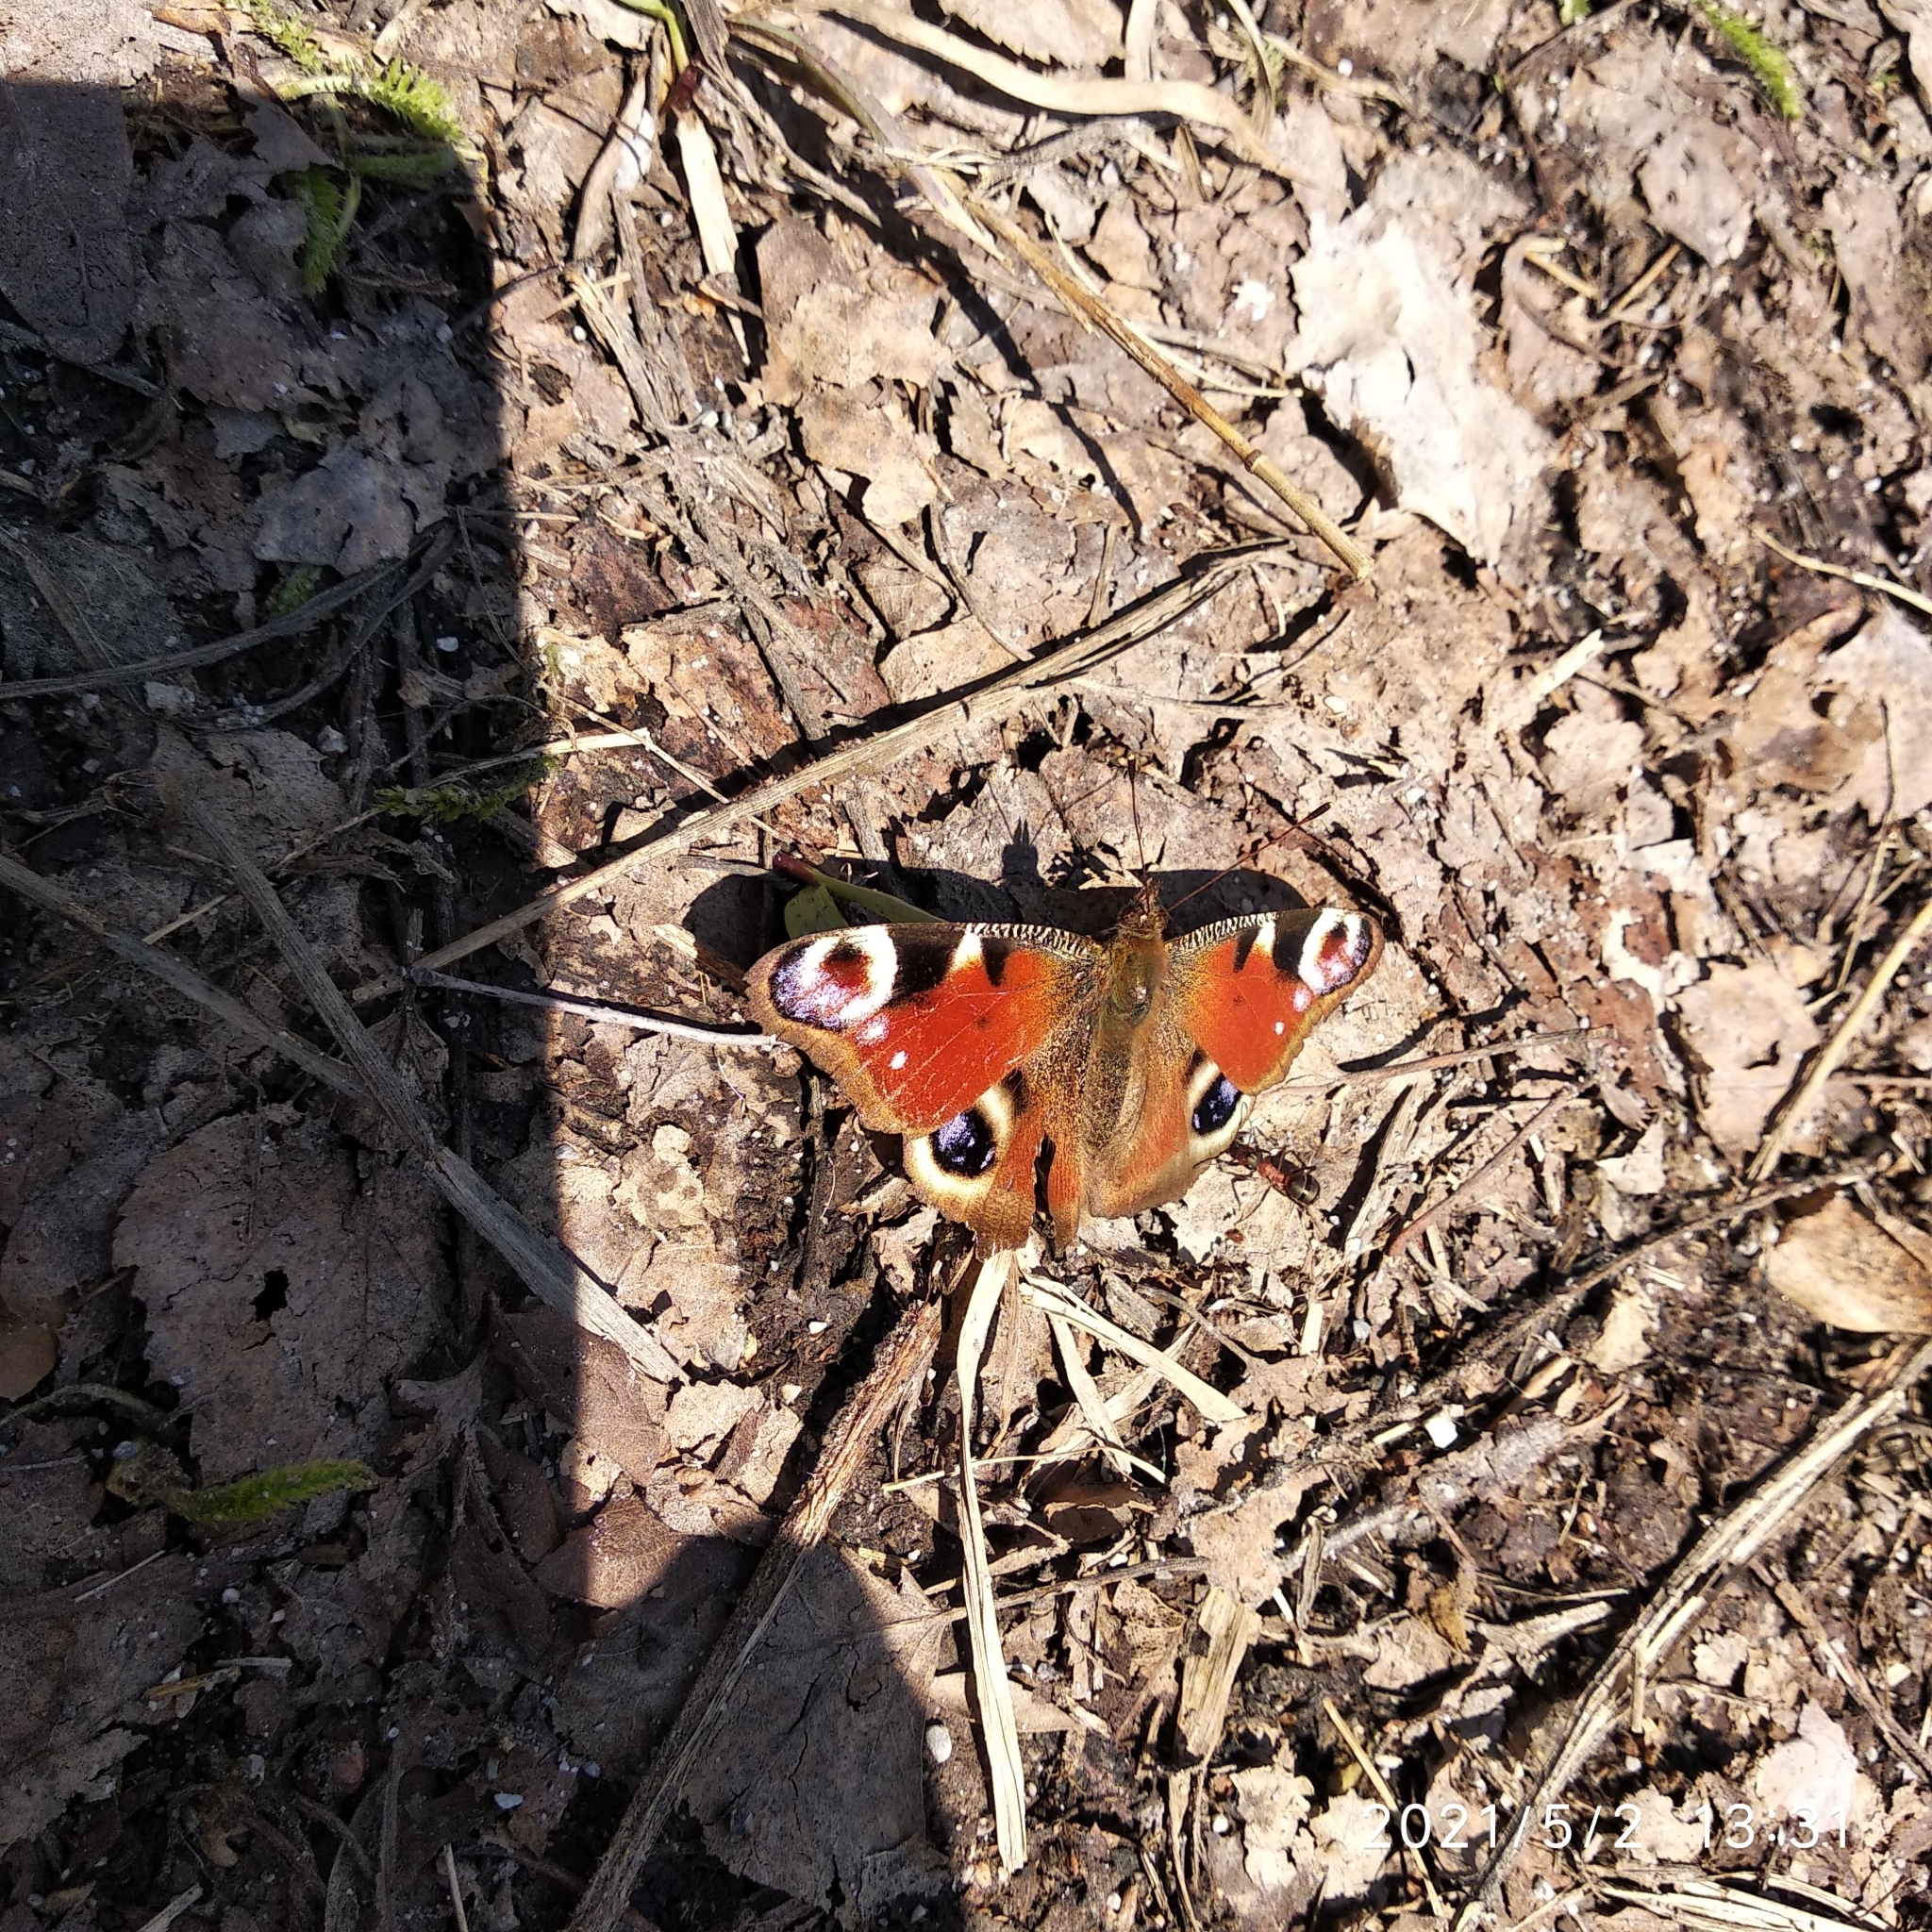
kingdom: Animalia
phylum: Arthropoda
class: Insecta
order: Lepidoptera
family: Nymphalidae
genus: Aglais
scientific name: Aglais io
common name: Peacock
